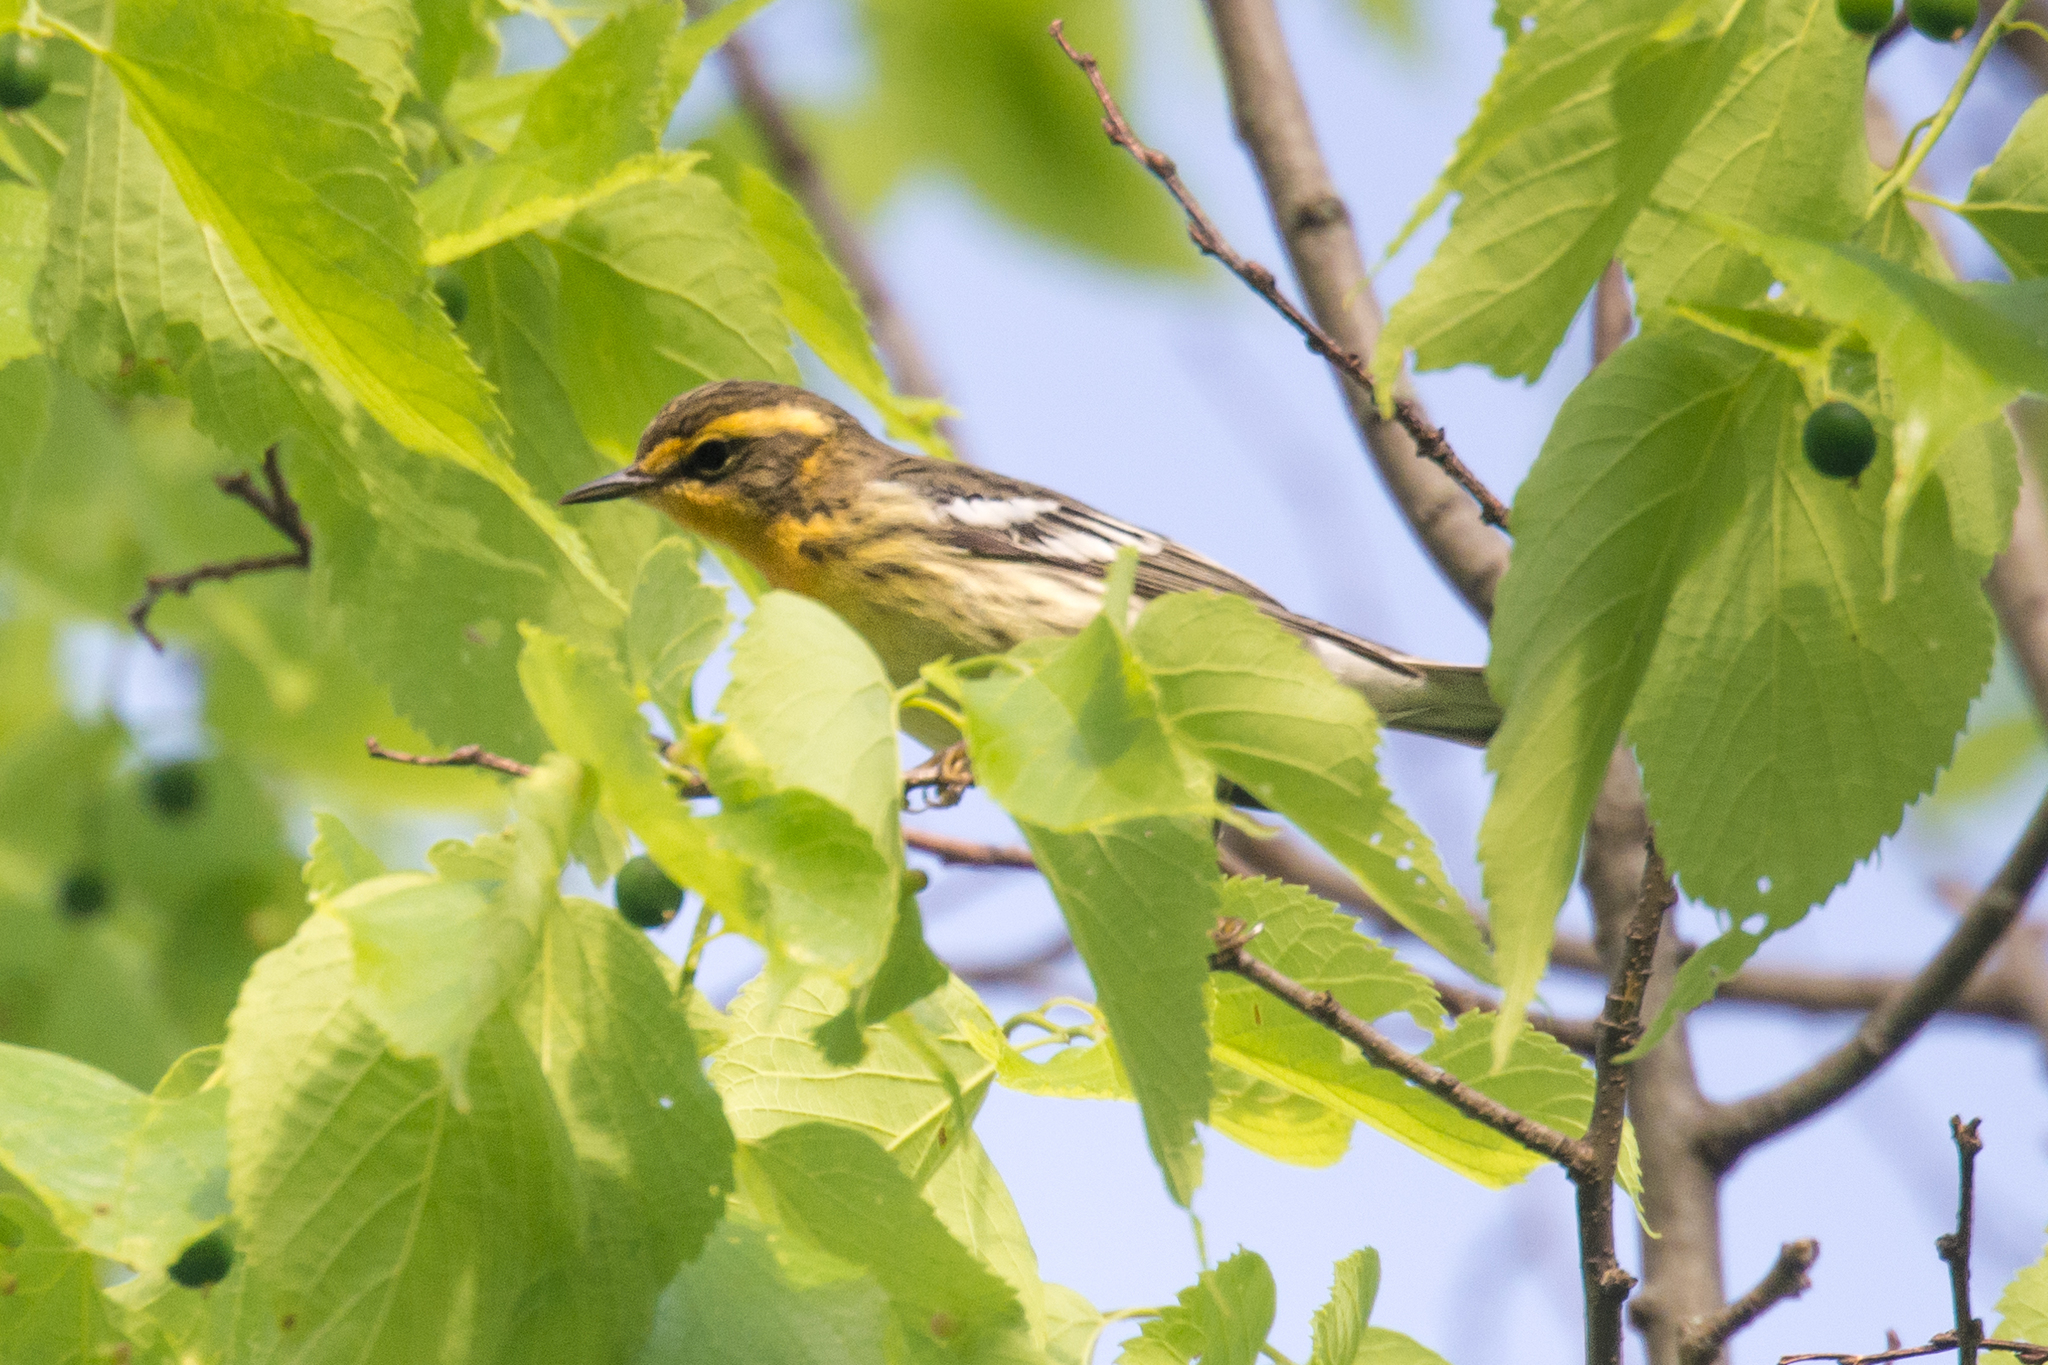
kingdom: Animalia
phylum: Chordata
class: Aves
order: Passeriformes
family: Parulidae
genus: Setophaga
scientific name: Setophaga fusca
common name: Blackburnian warbler
